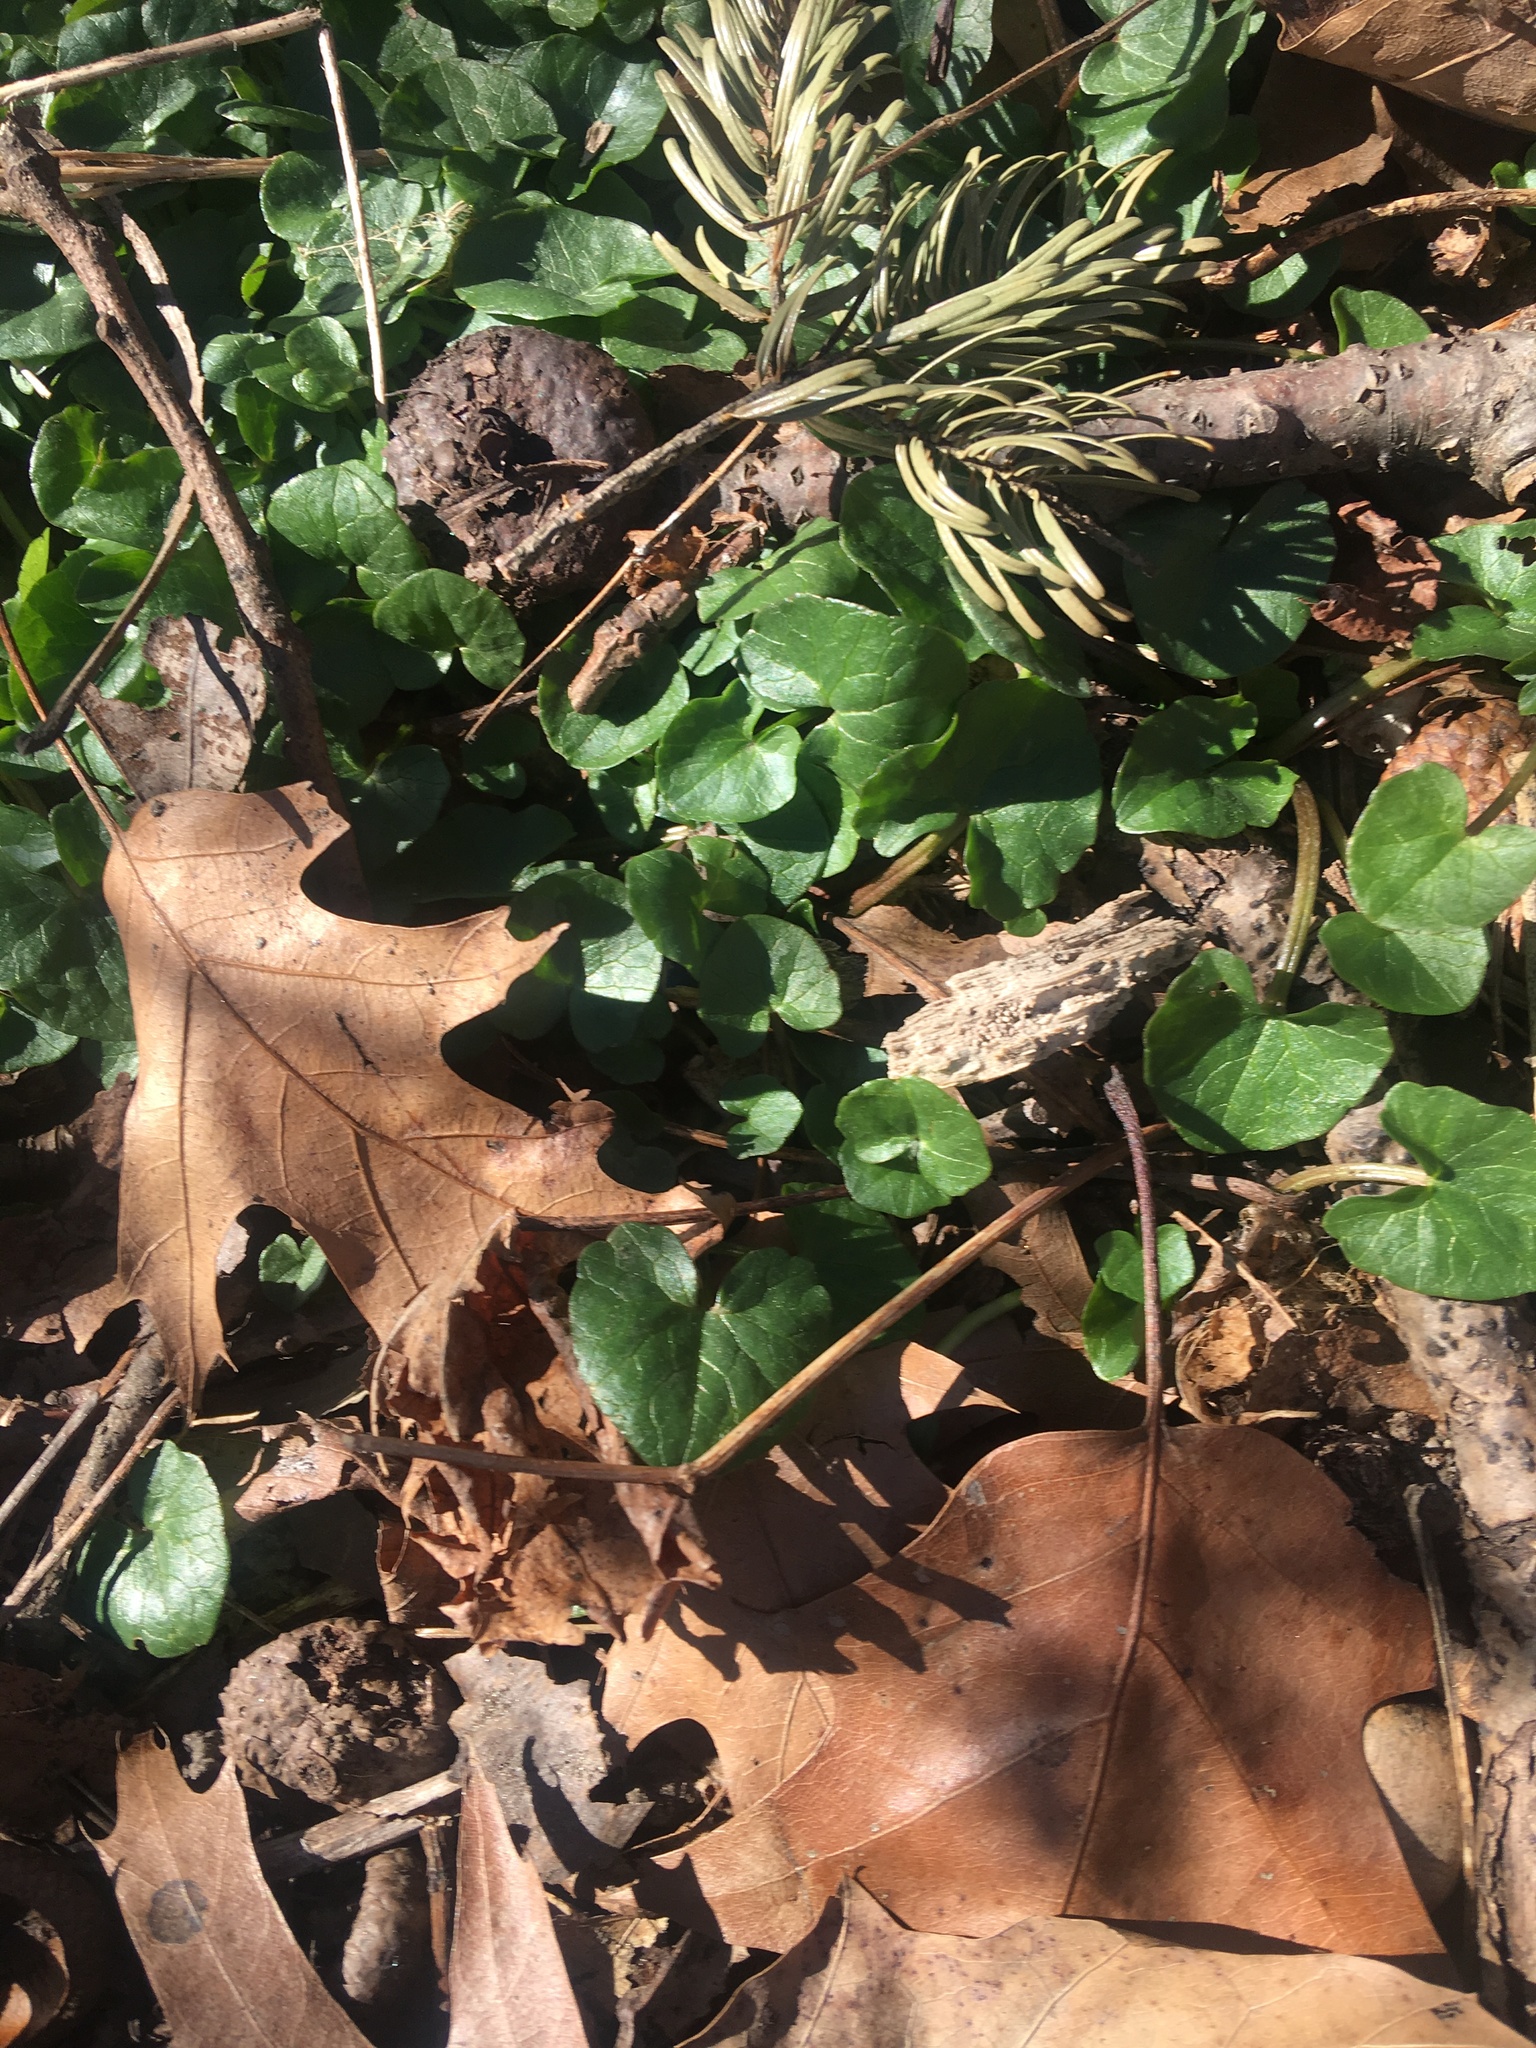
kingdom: Plantae
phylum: Tracheophyta
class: Magnoliopsida
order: Ranunculales
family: Ranunculaceae
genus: Ficaria
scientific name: Ficaria verna
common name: Lesser celandine
